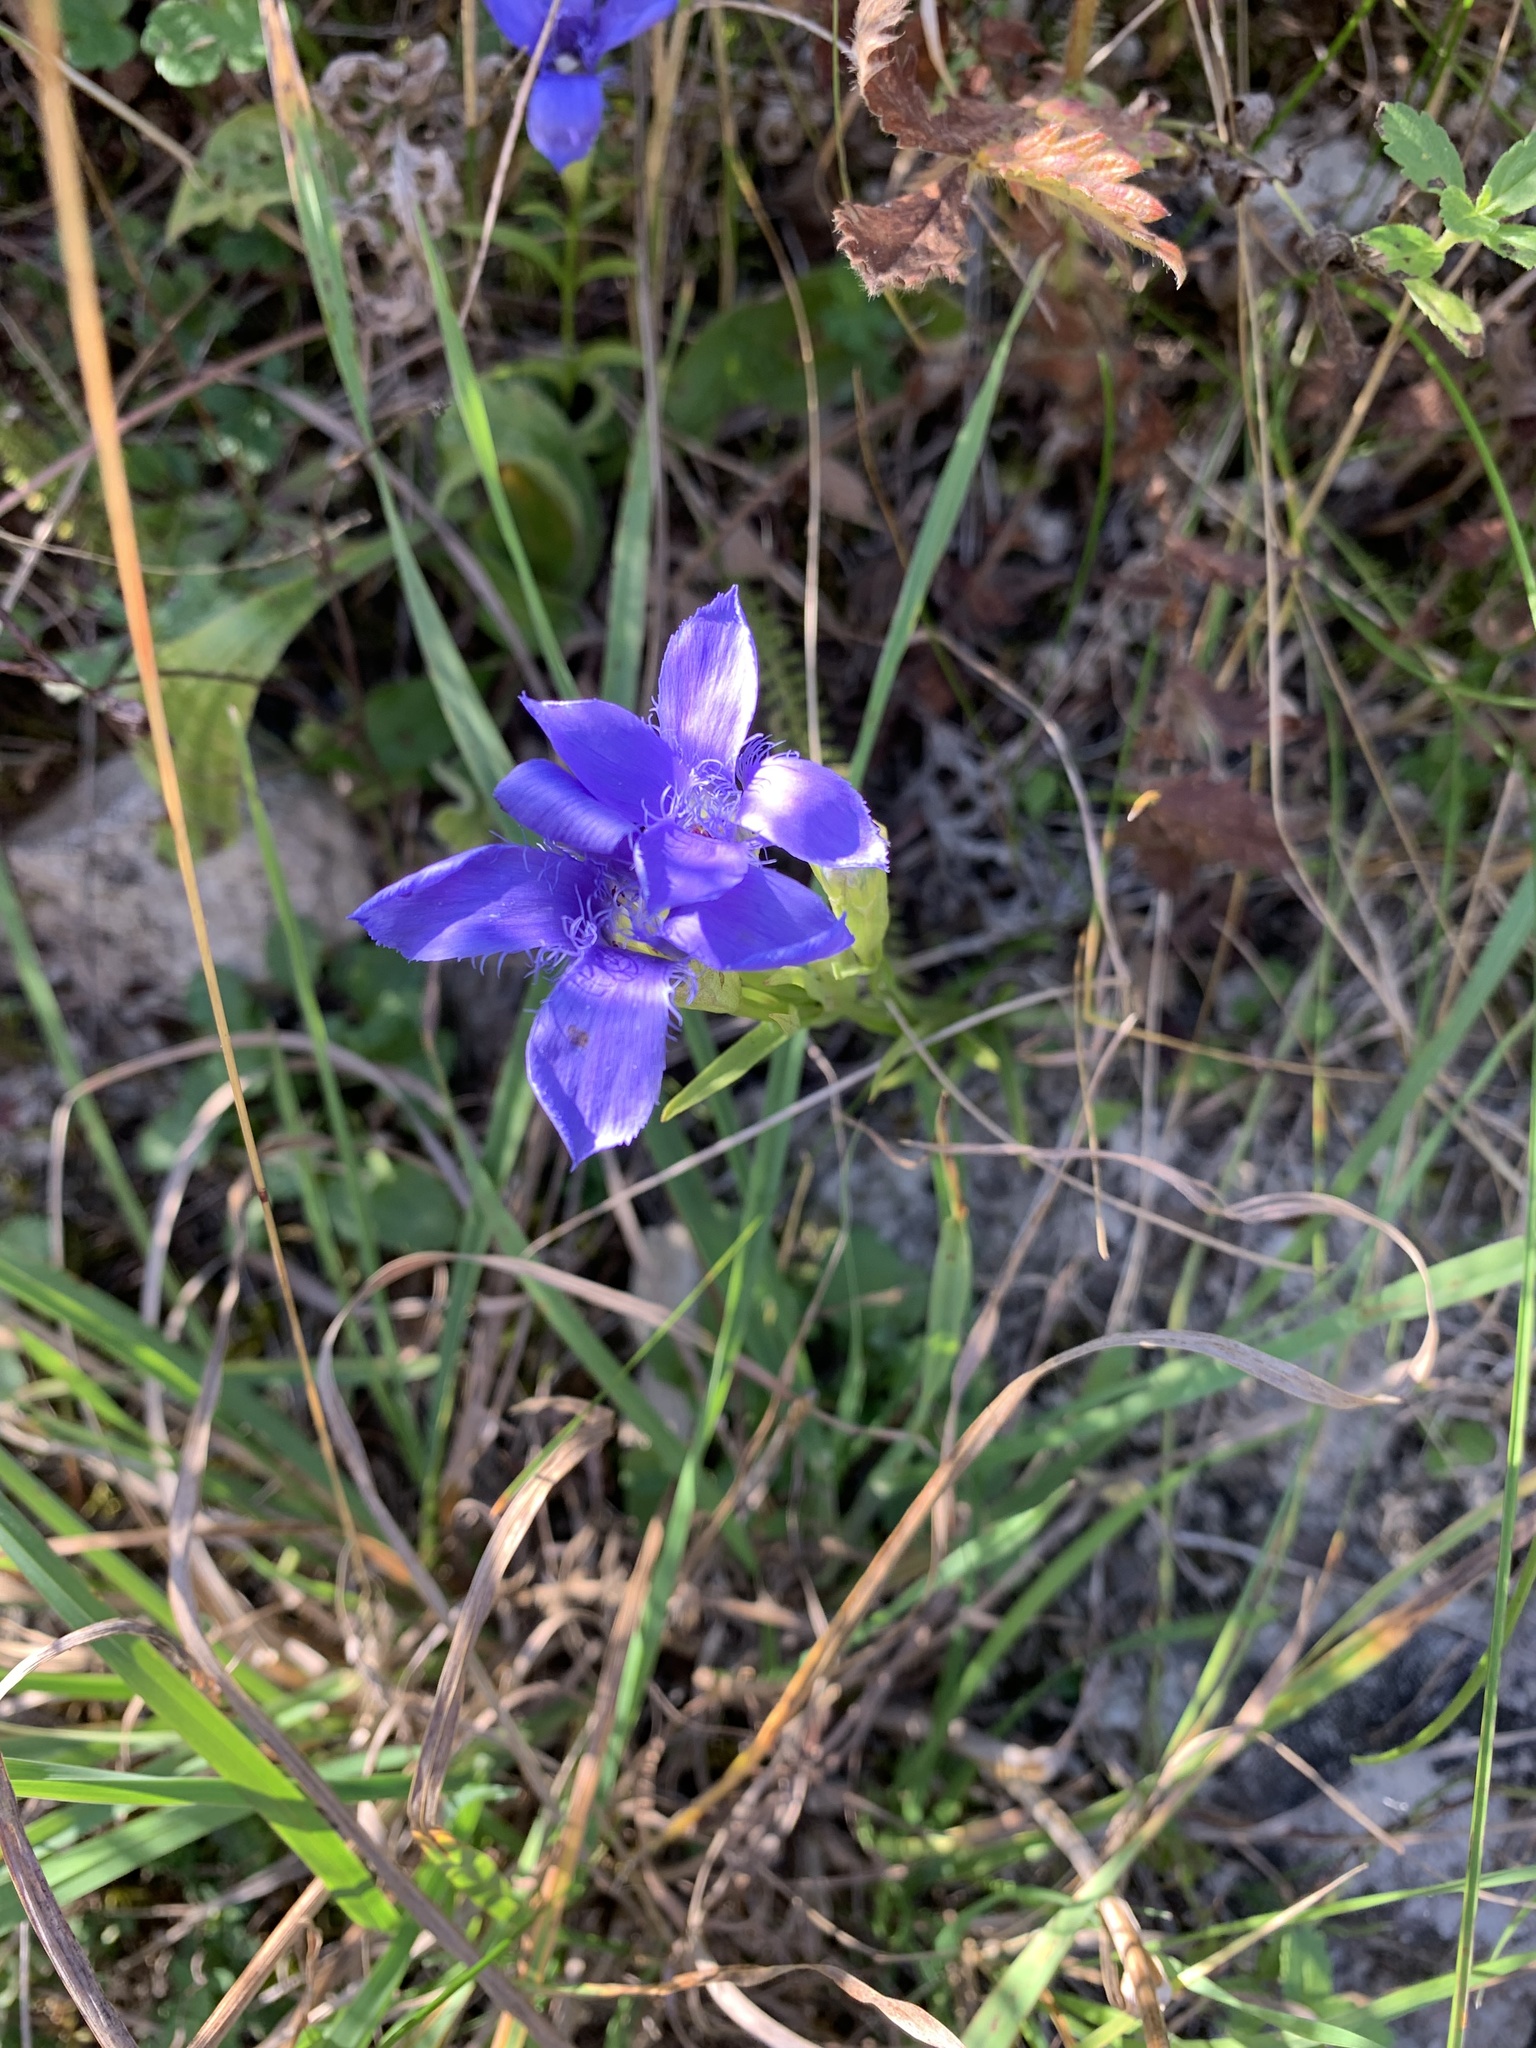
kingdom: Plantae
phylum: Tracheophyta
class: Magnoliopsida
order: Gentianales
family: Gentianaceae
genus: Gentianopsis
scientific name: Gentianopsis ciliata
